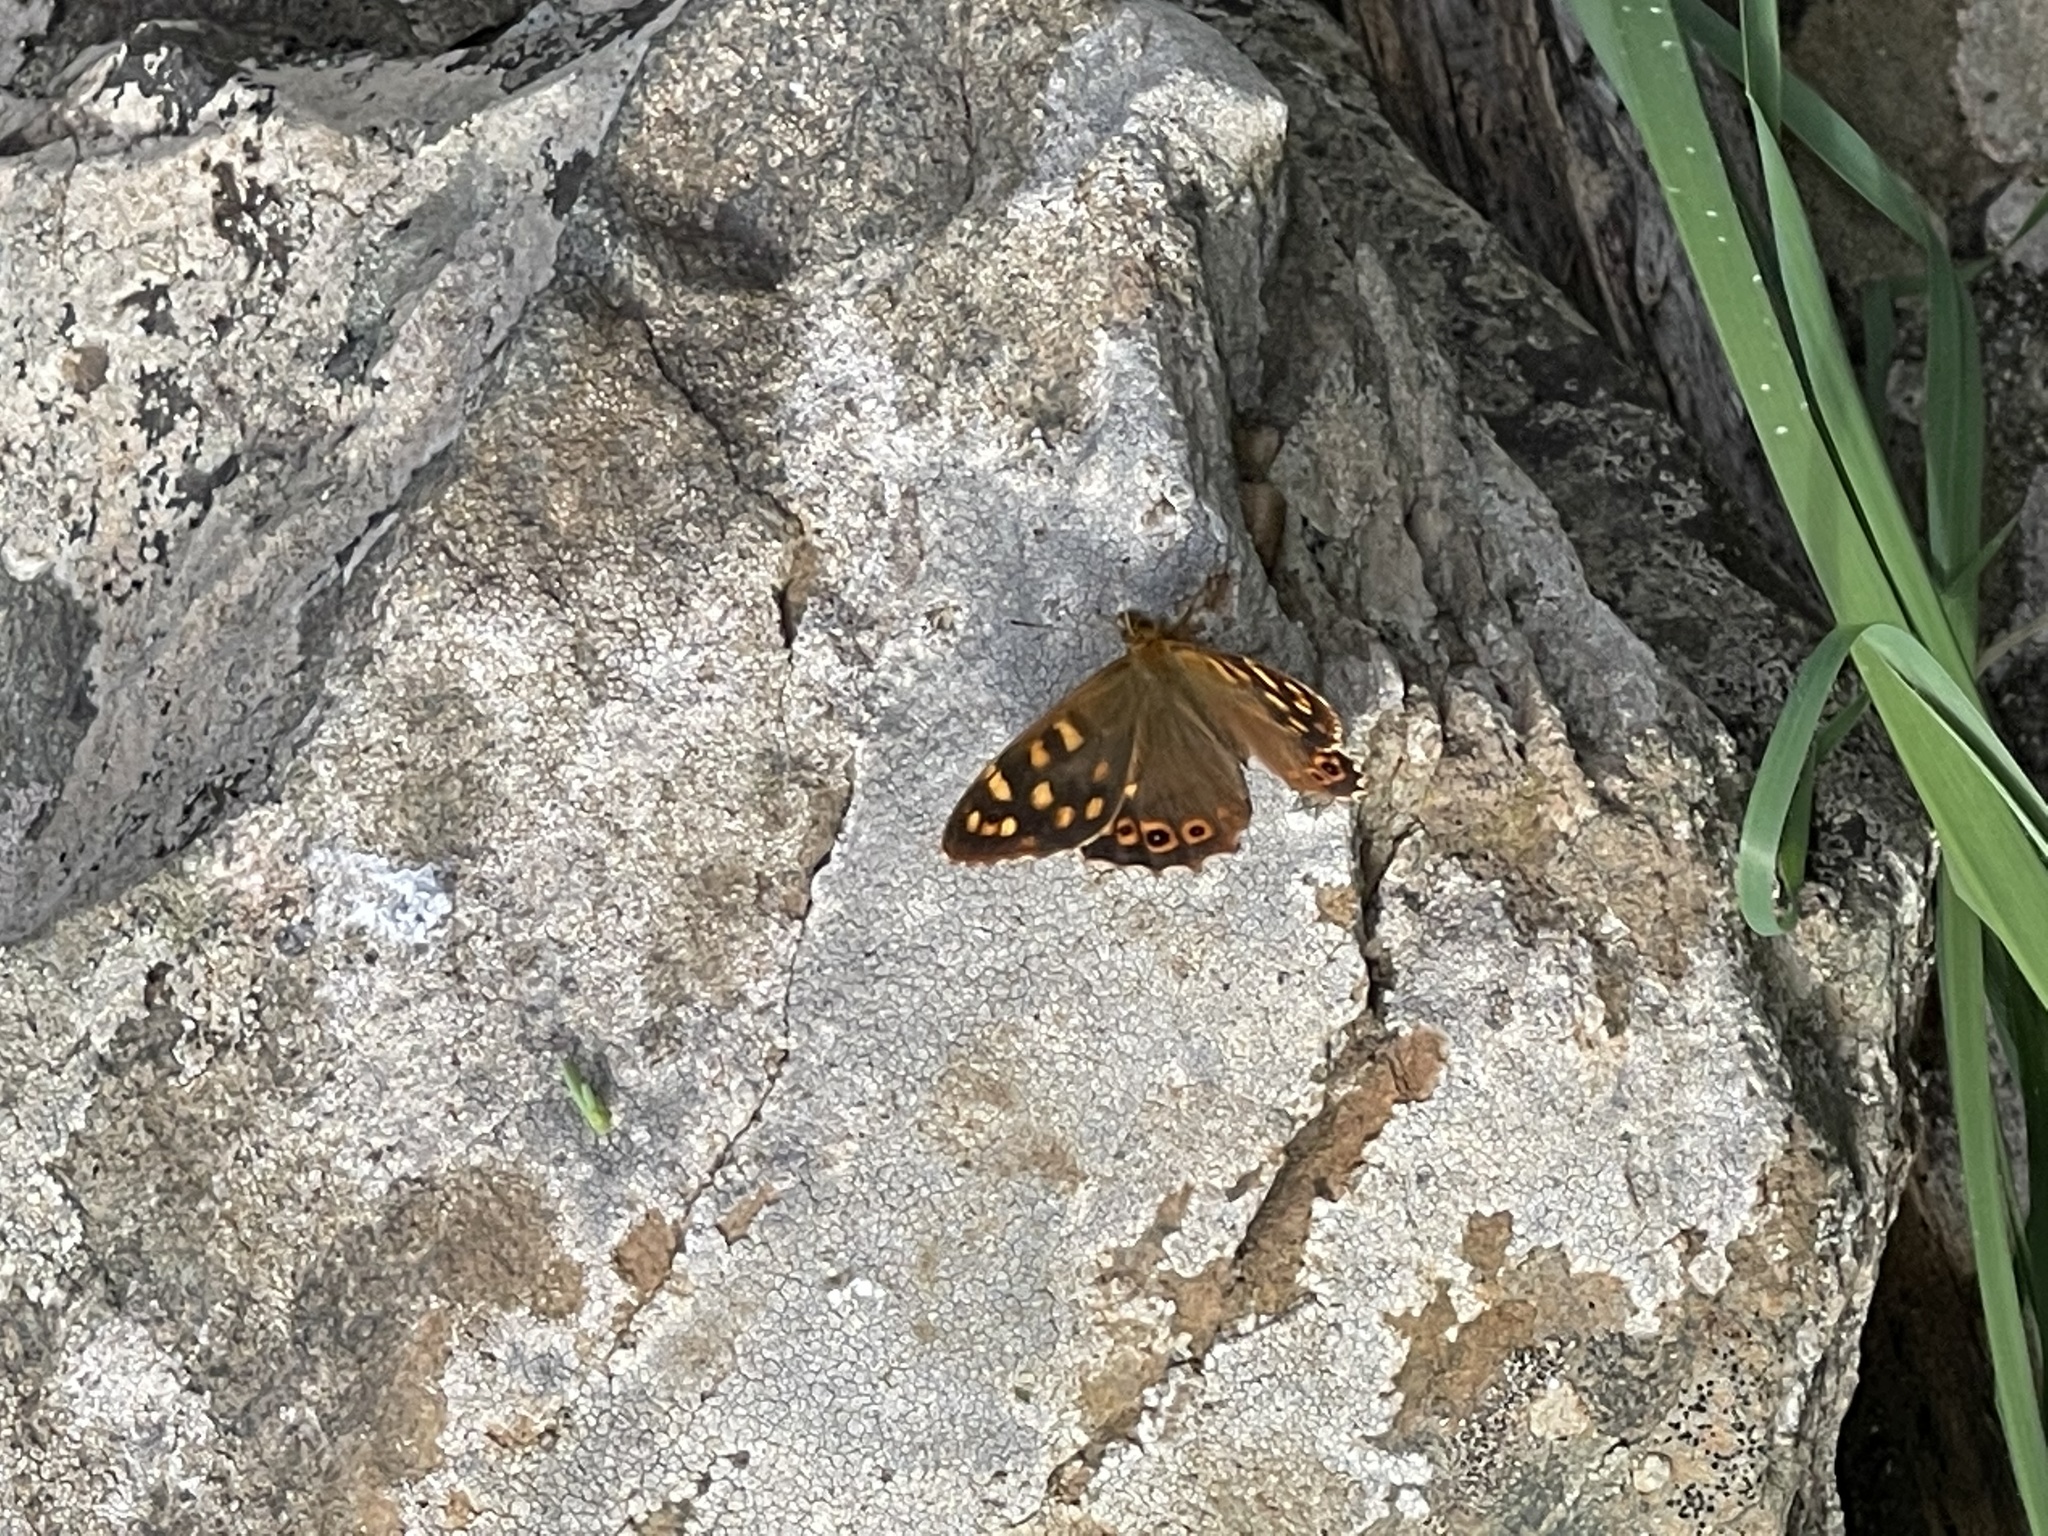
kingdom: Animalia
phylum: Arthropoda
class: Insecta
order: Lepidoptera
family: Nymphalidae
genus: Pararge
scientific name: Pararge aegeria
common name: Speckled wood
